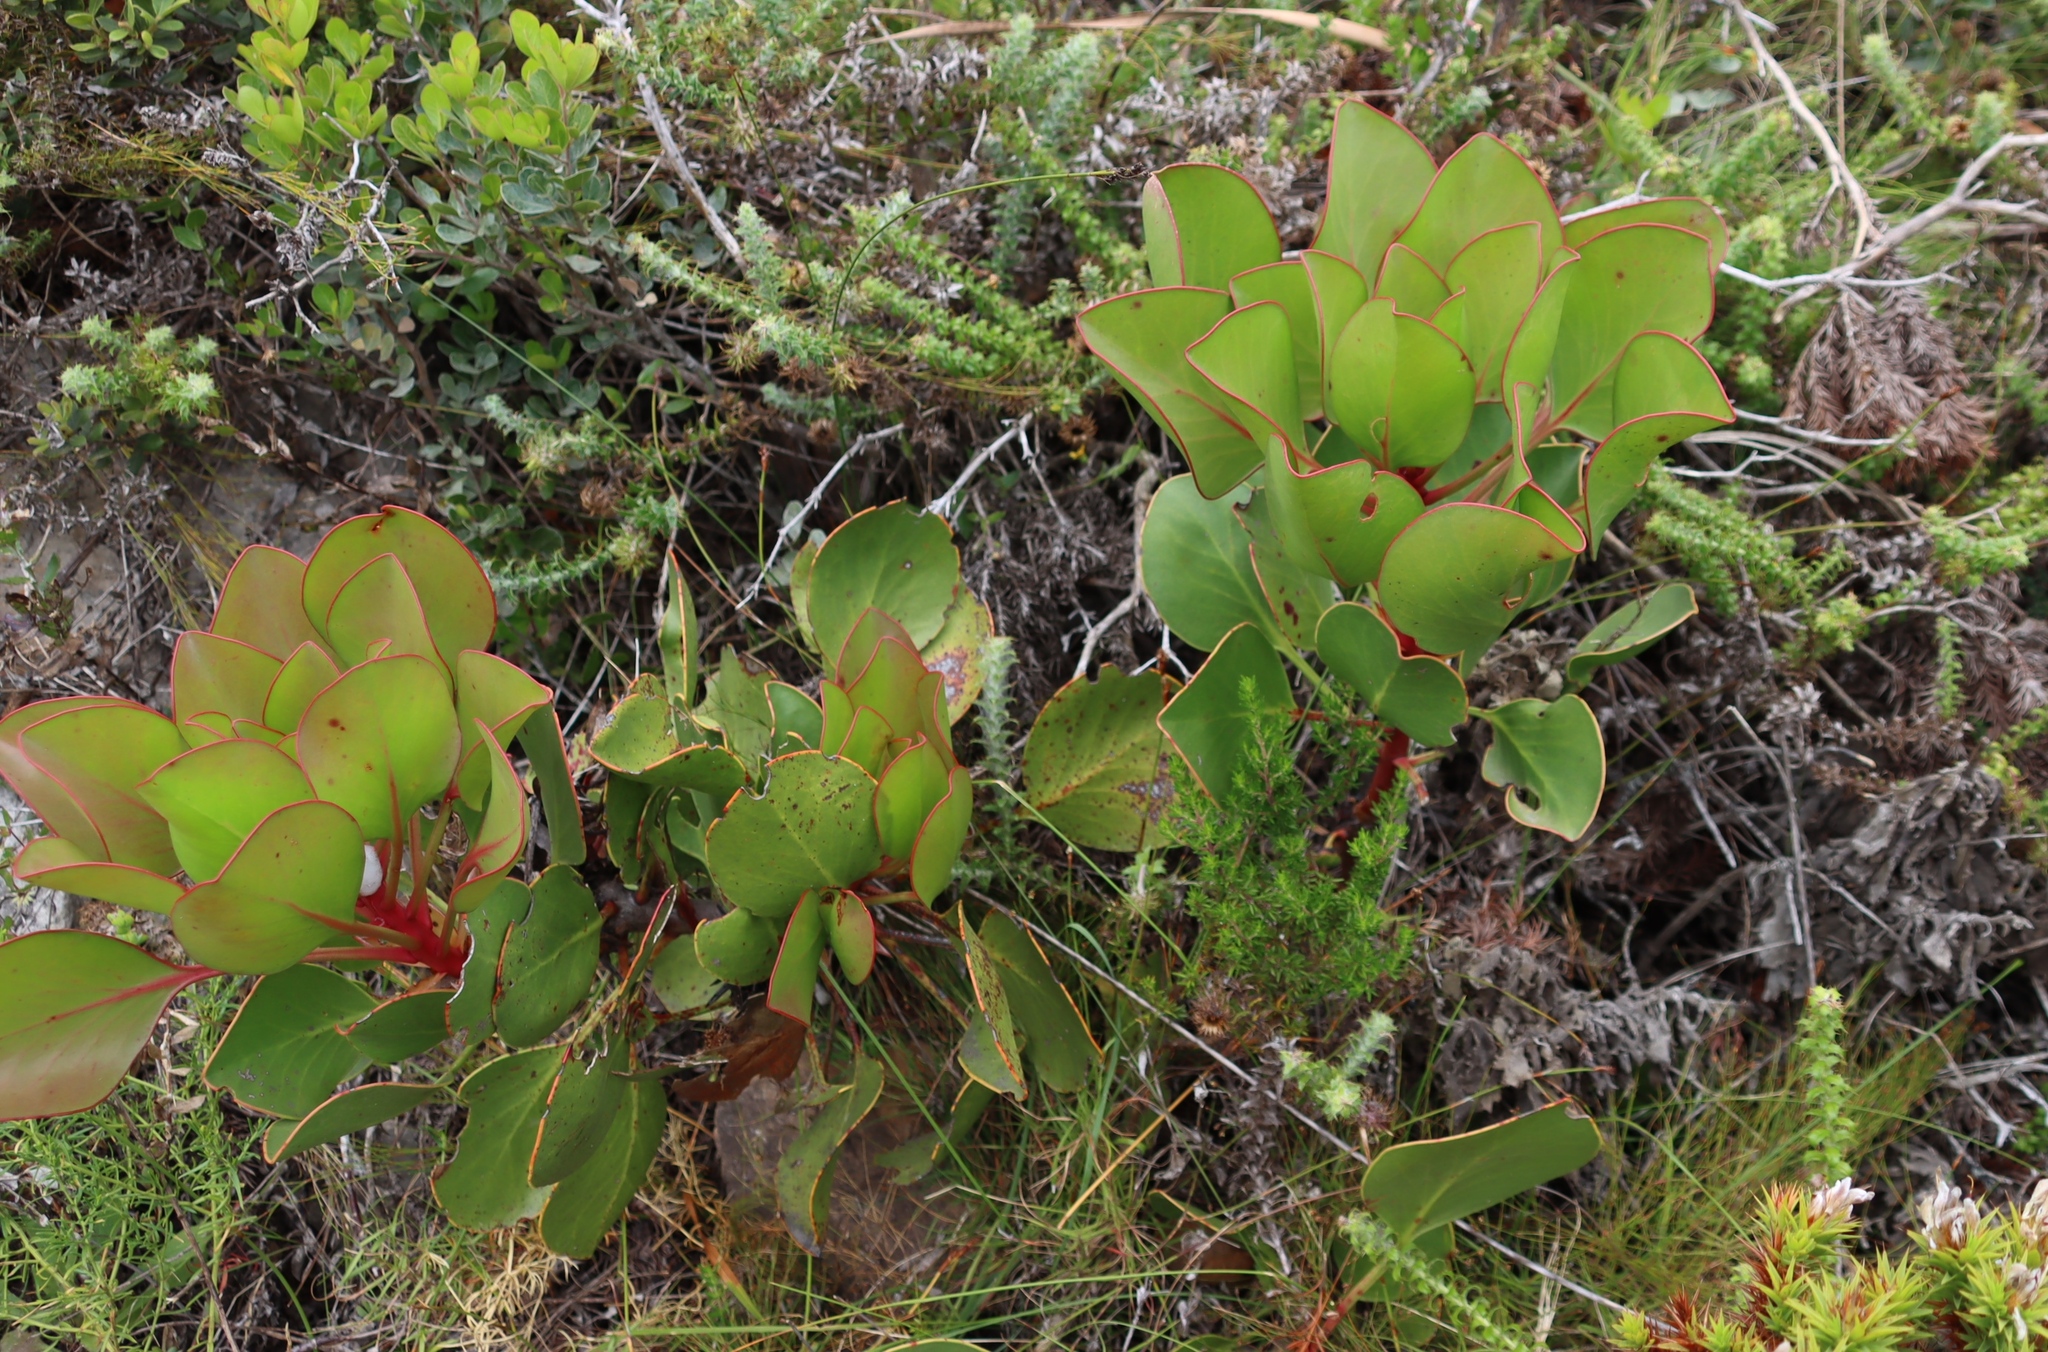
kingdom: Plantae
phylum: Tracheophyta
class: Magnoliopsida
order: Proteales
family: Proteaceae
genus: Protea
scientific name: Protea cynaroides
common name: King protea
